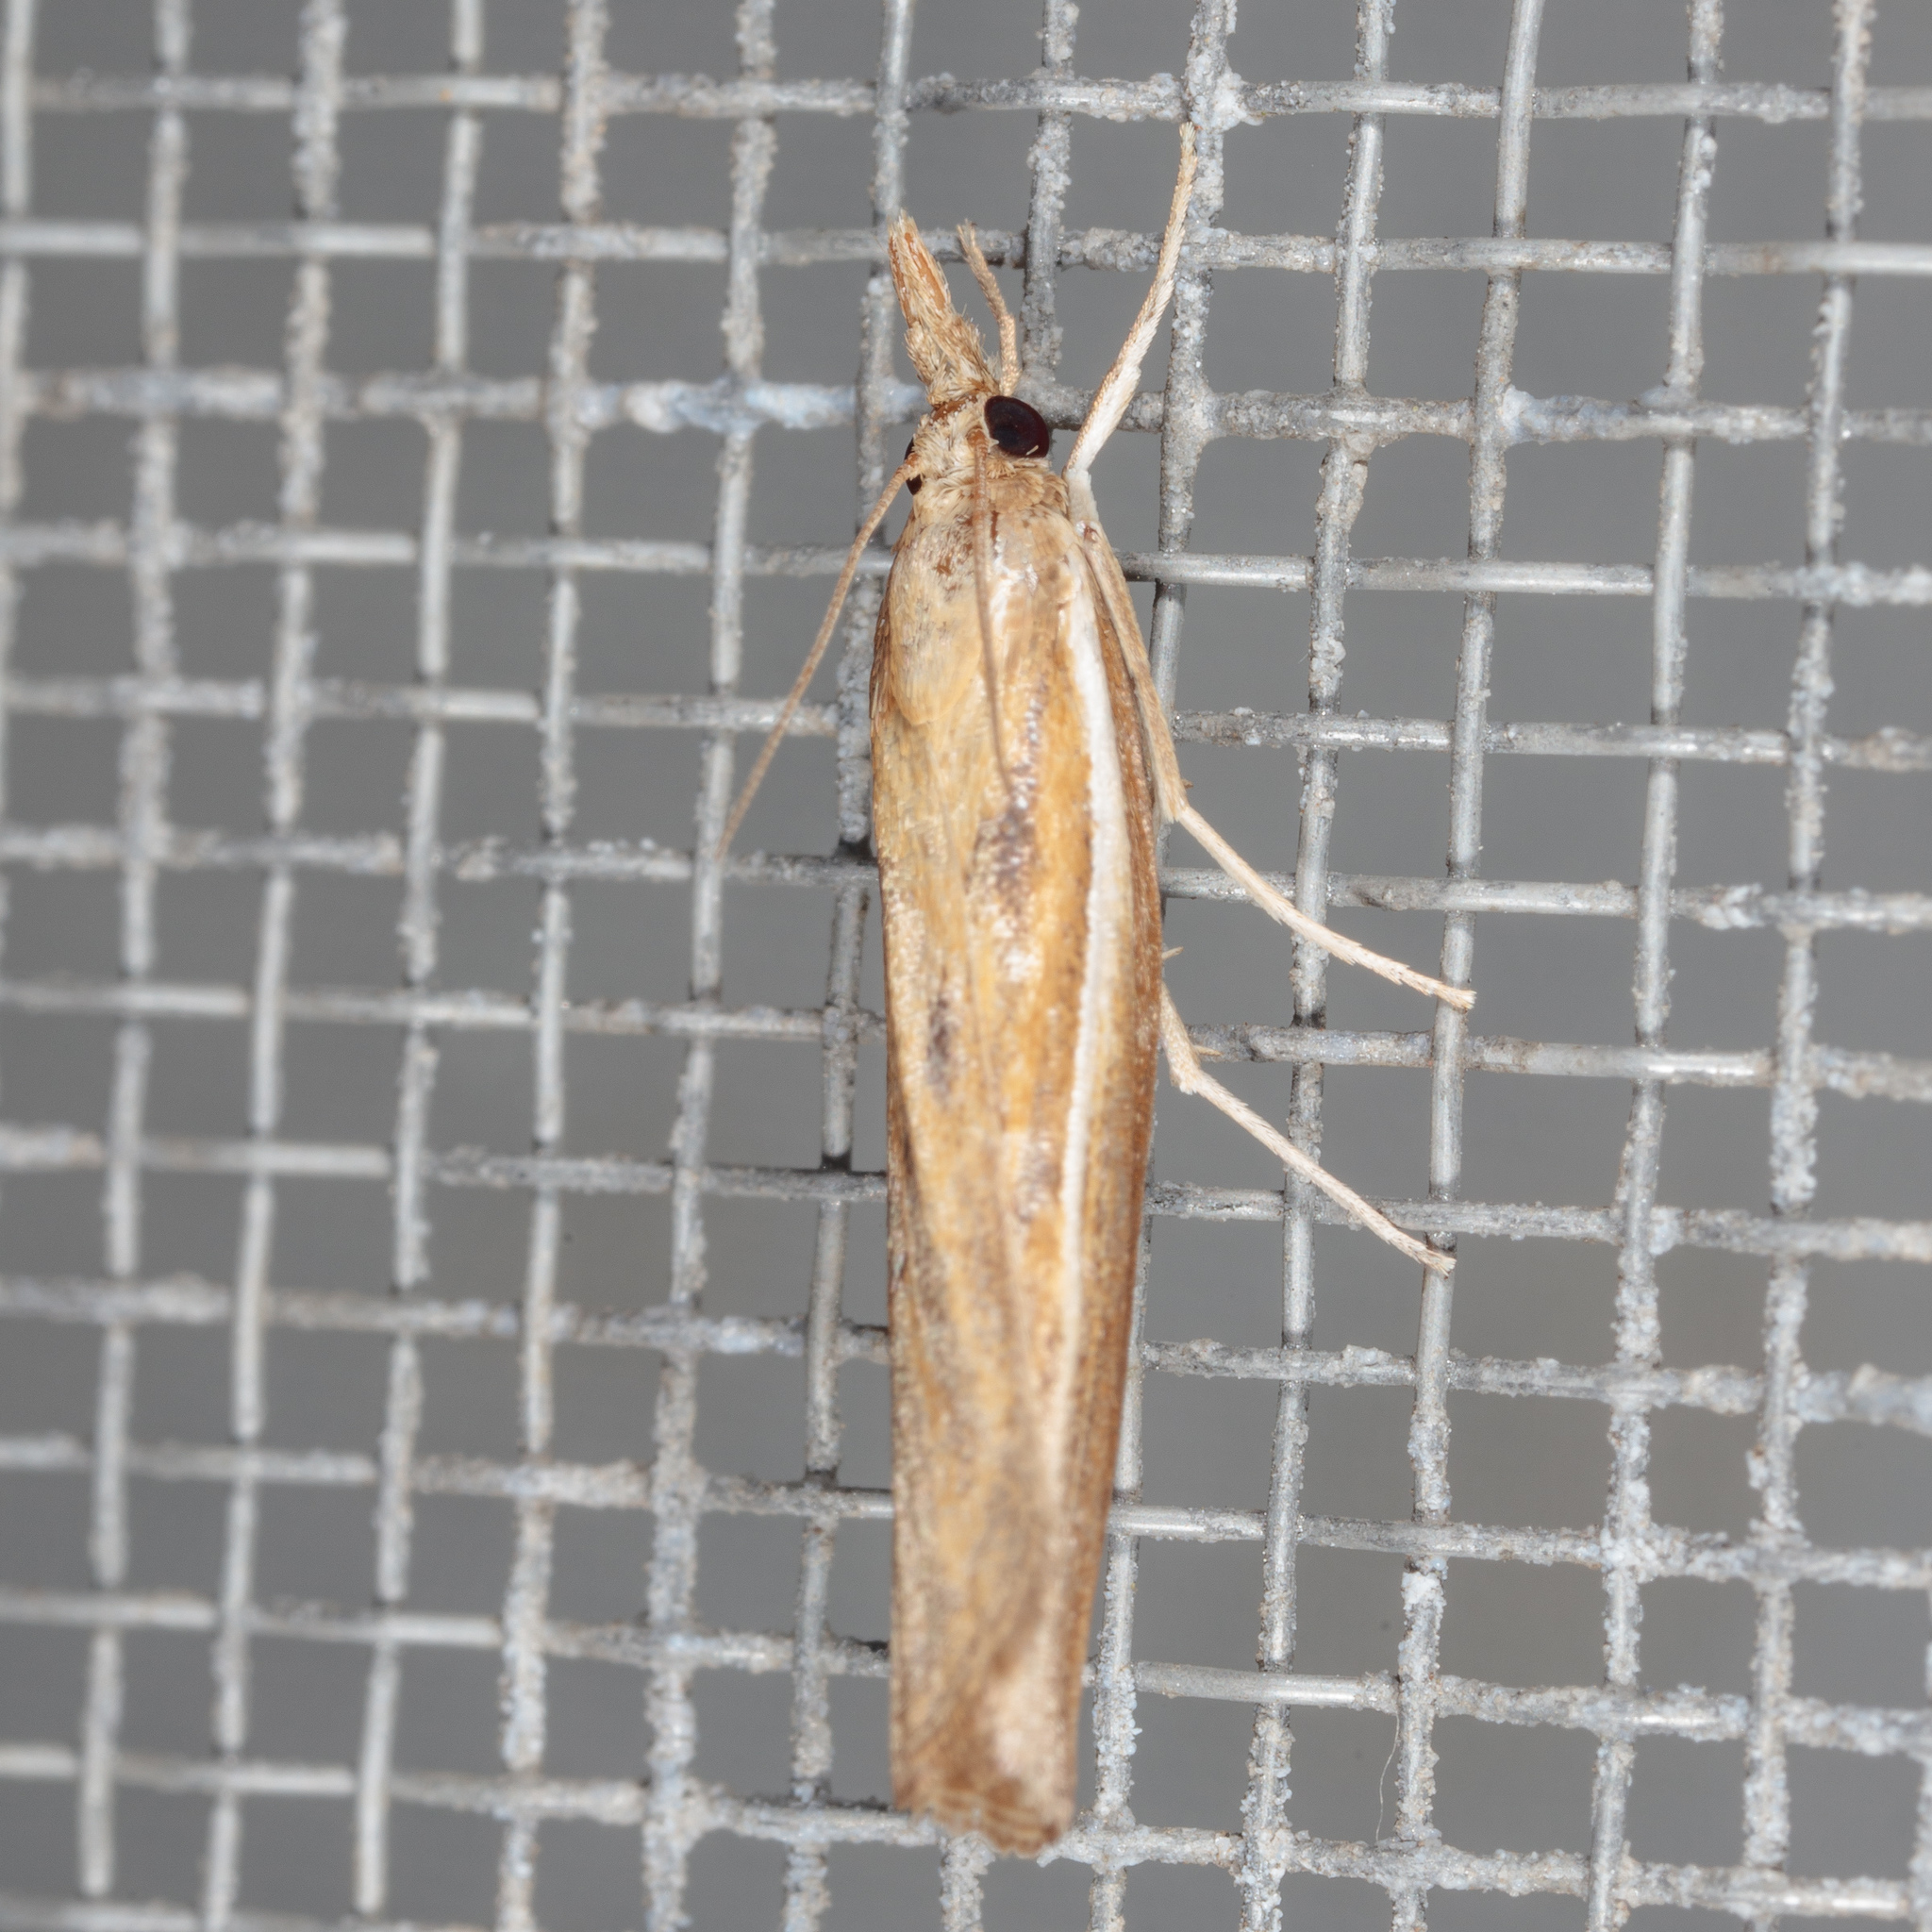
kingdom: Animalia
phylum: Arthropoda
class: Insecta
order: Lepidoptera
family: Crambidae
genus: Fissicrambus
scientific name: Fissicrambus intermedius
